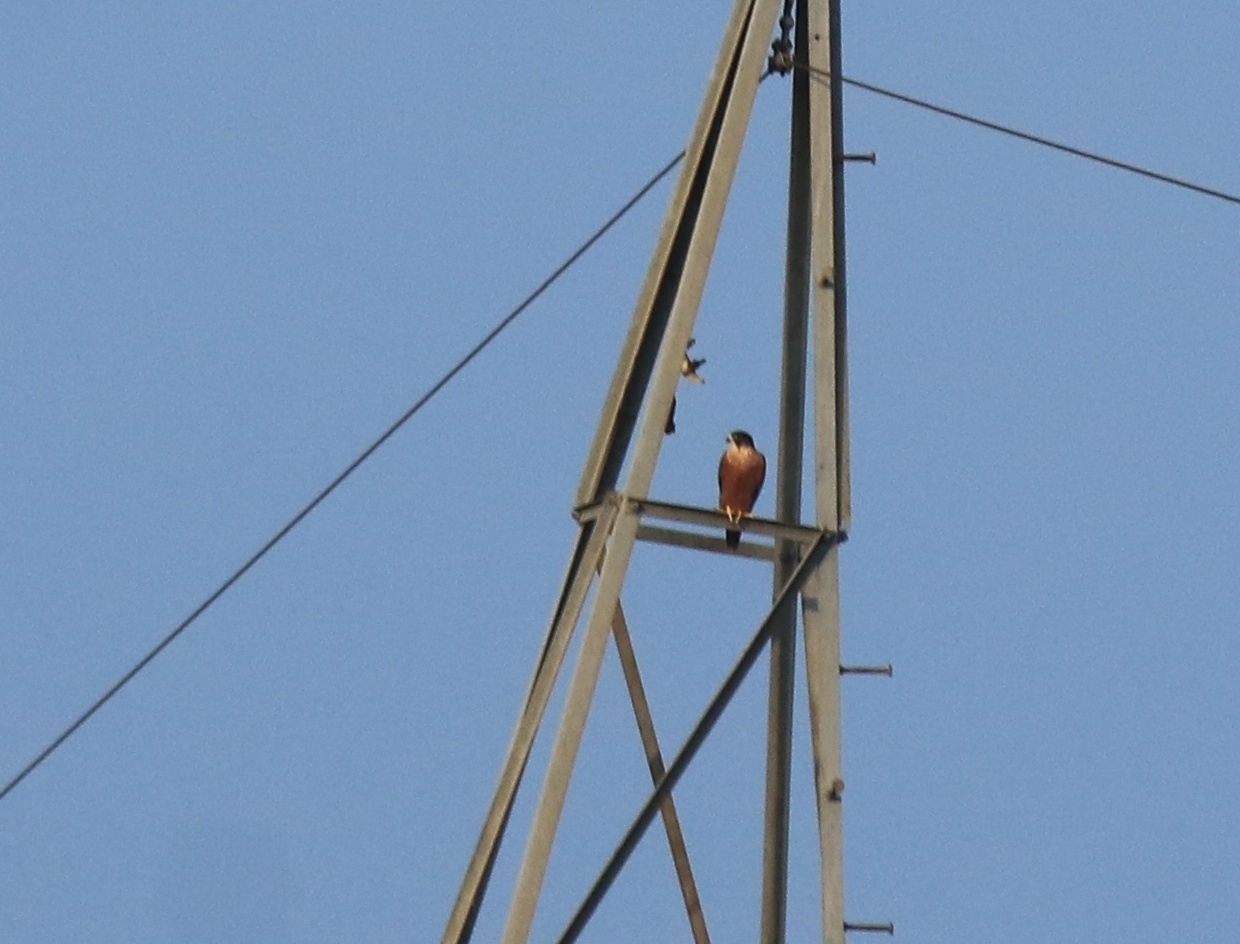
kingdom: Animalia
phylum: Chordata
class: Aves
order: Falconiformes
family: Falconidae
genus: Falco
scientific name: Falco peregrinus
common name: Peregrine falcon
